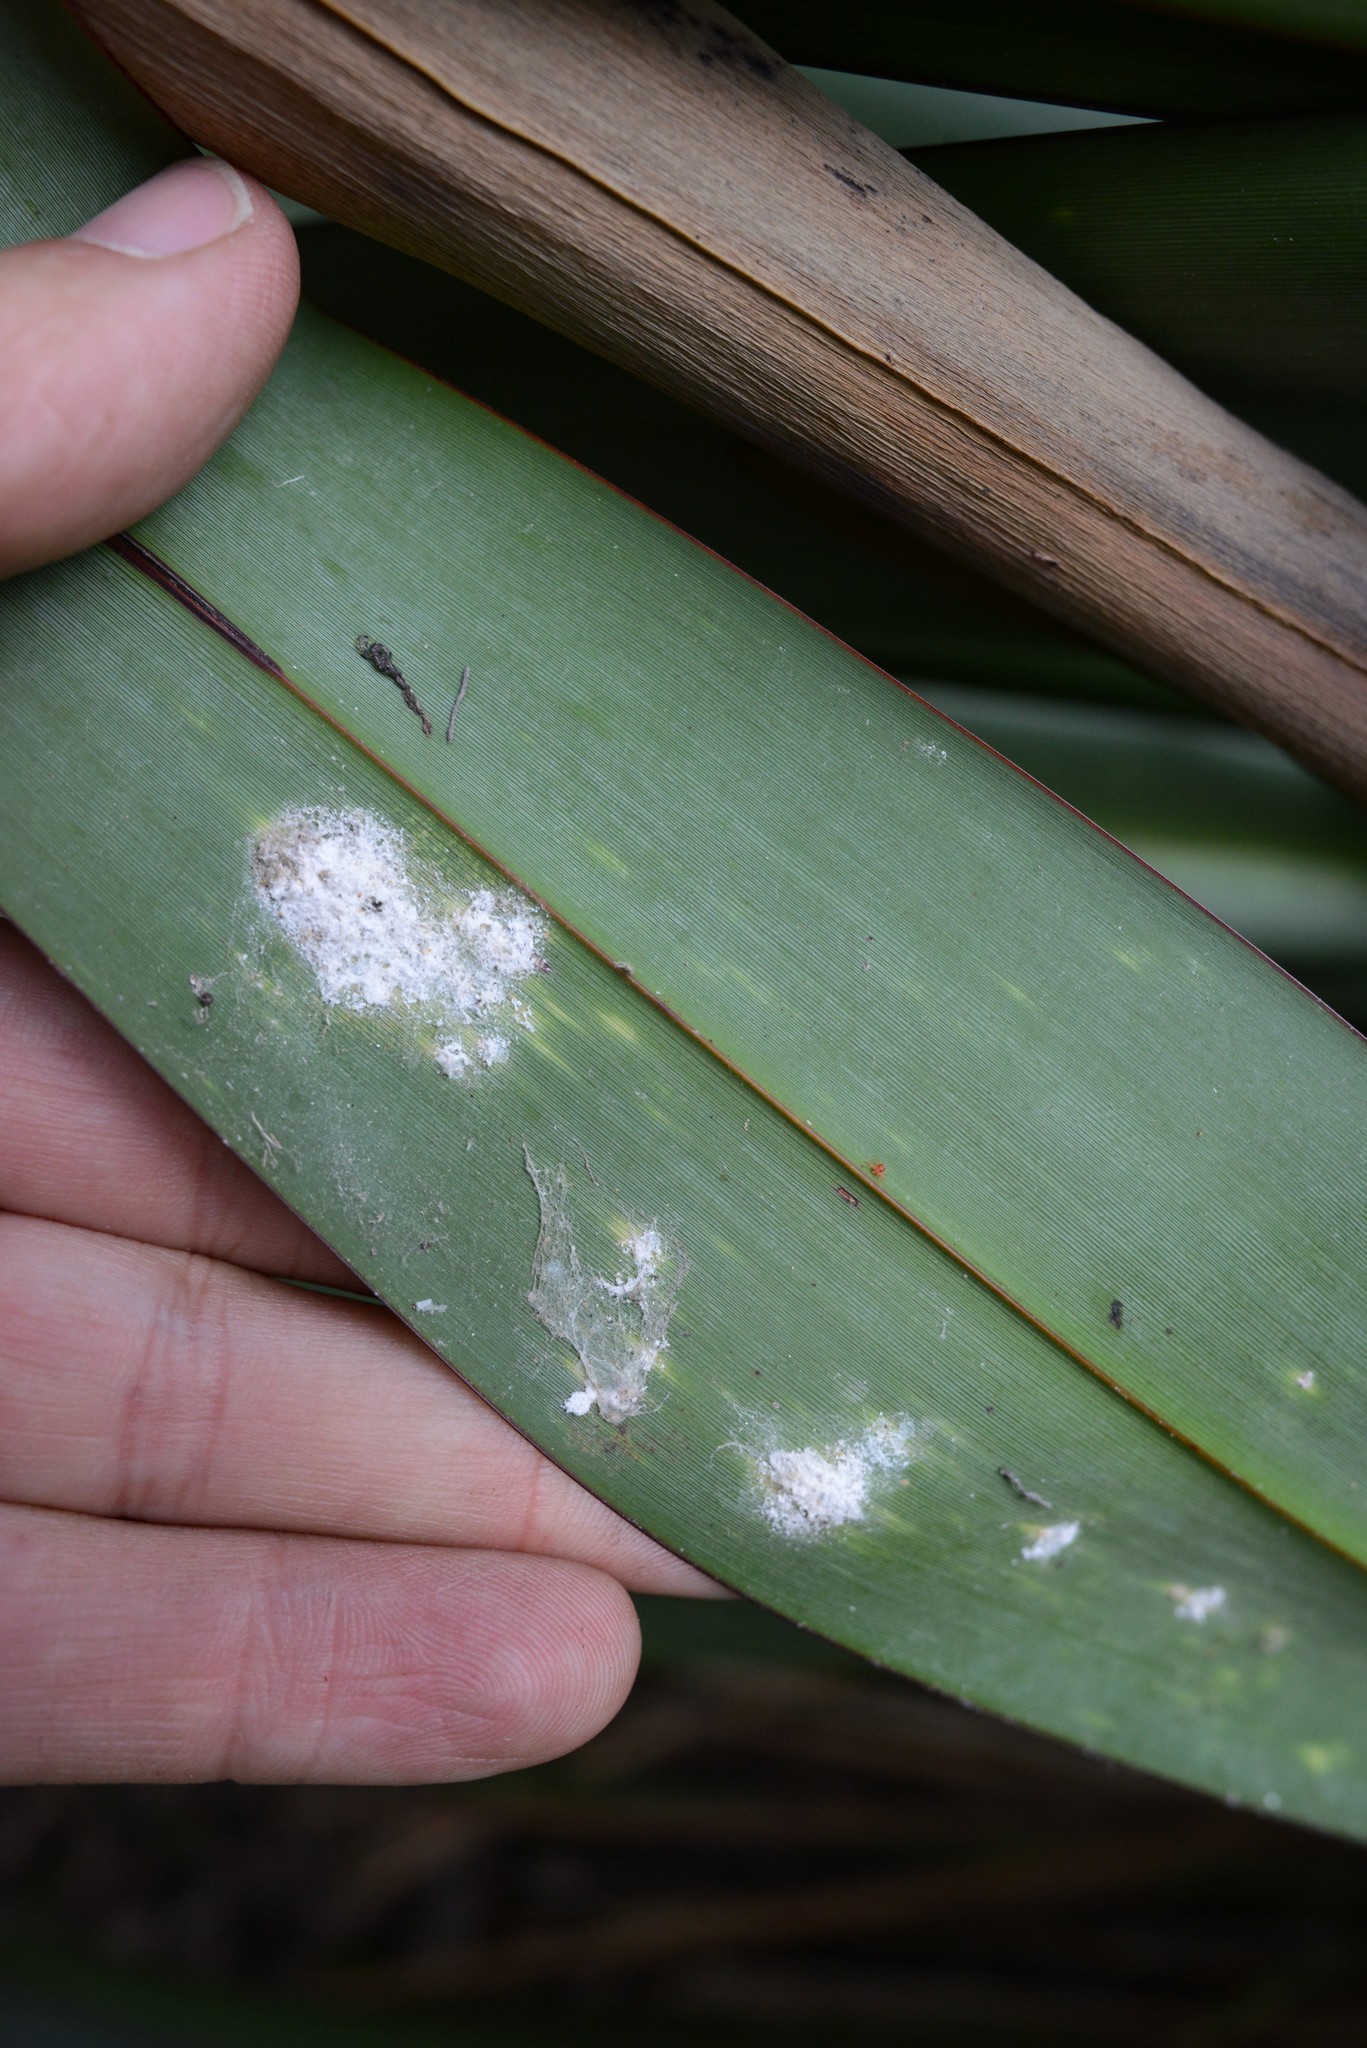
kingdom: Animalia
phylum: Arthropoda
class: Insecta
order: Hemiptera
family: Diaspididae
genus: Poliaspis
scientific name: Poliaspis floccosa
